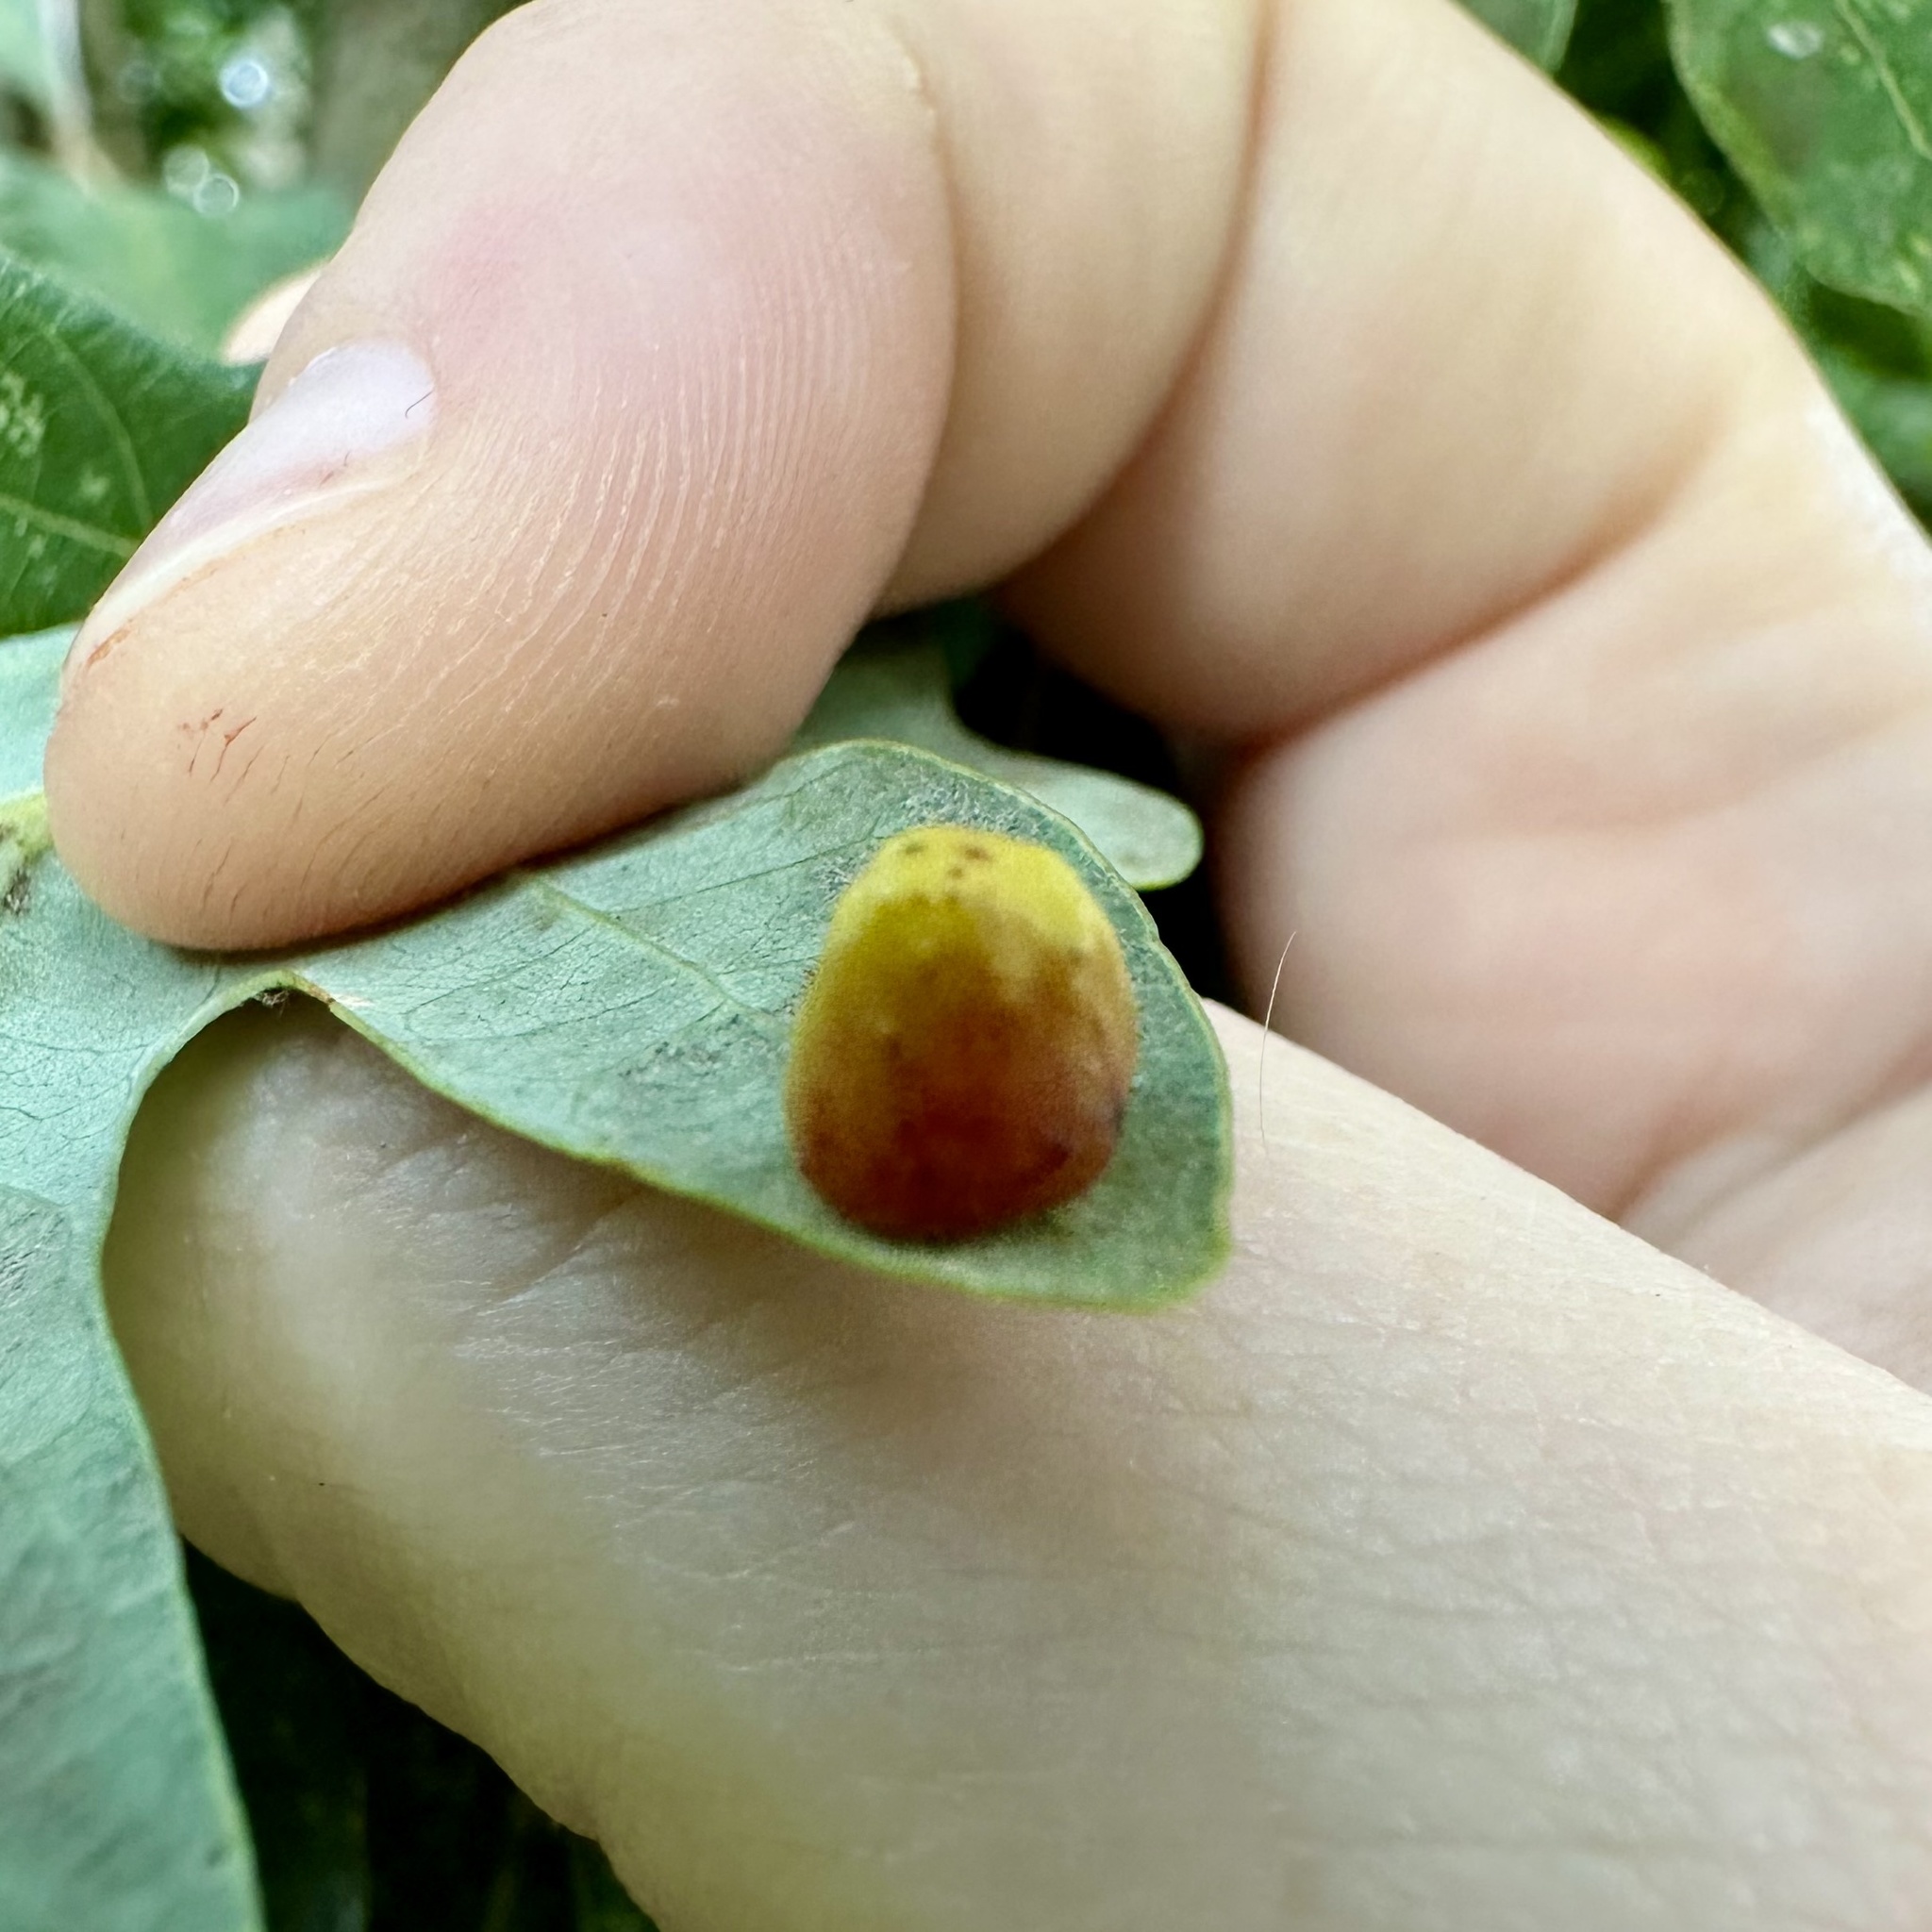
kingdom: Animalia
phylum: Arthropoda
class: Insecta
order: Hymenoptera
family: Cynipidae
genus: Andricus
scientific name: Andricus
